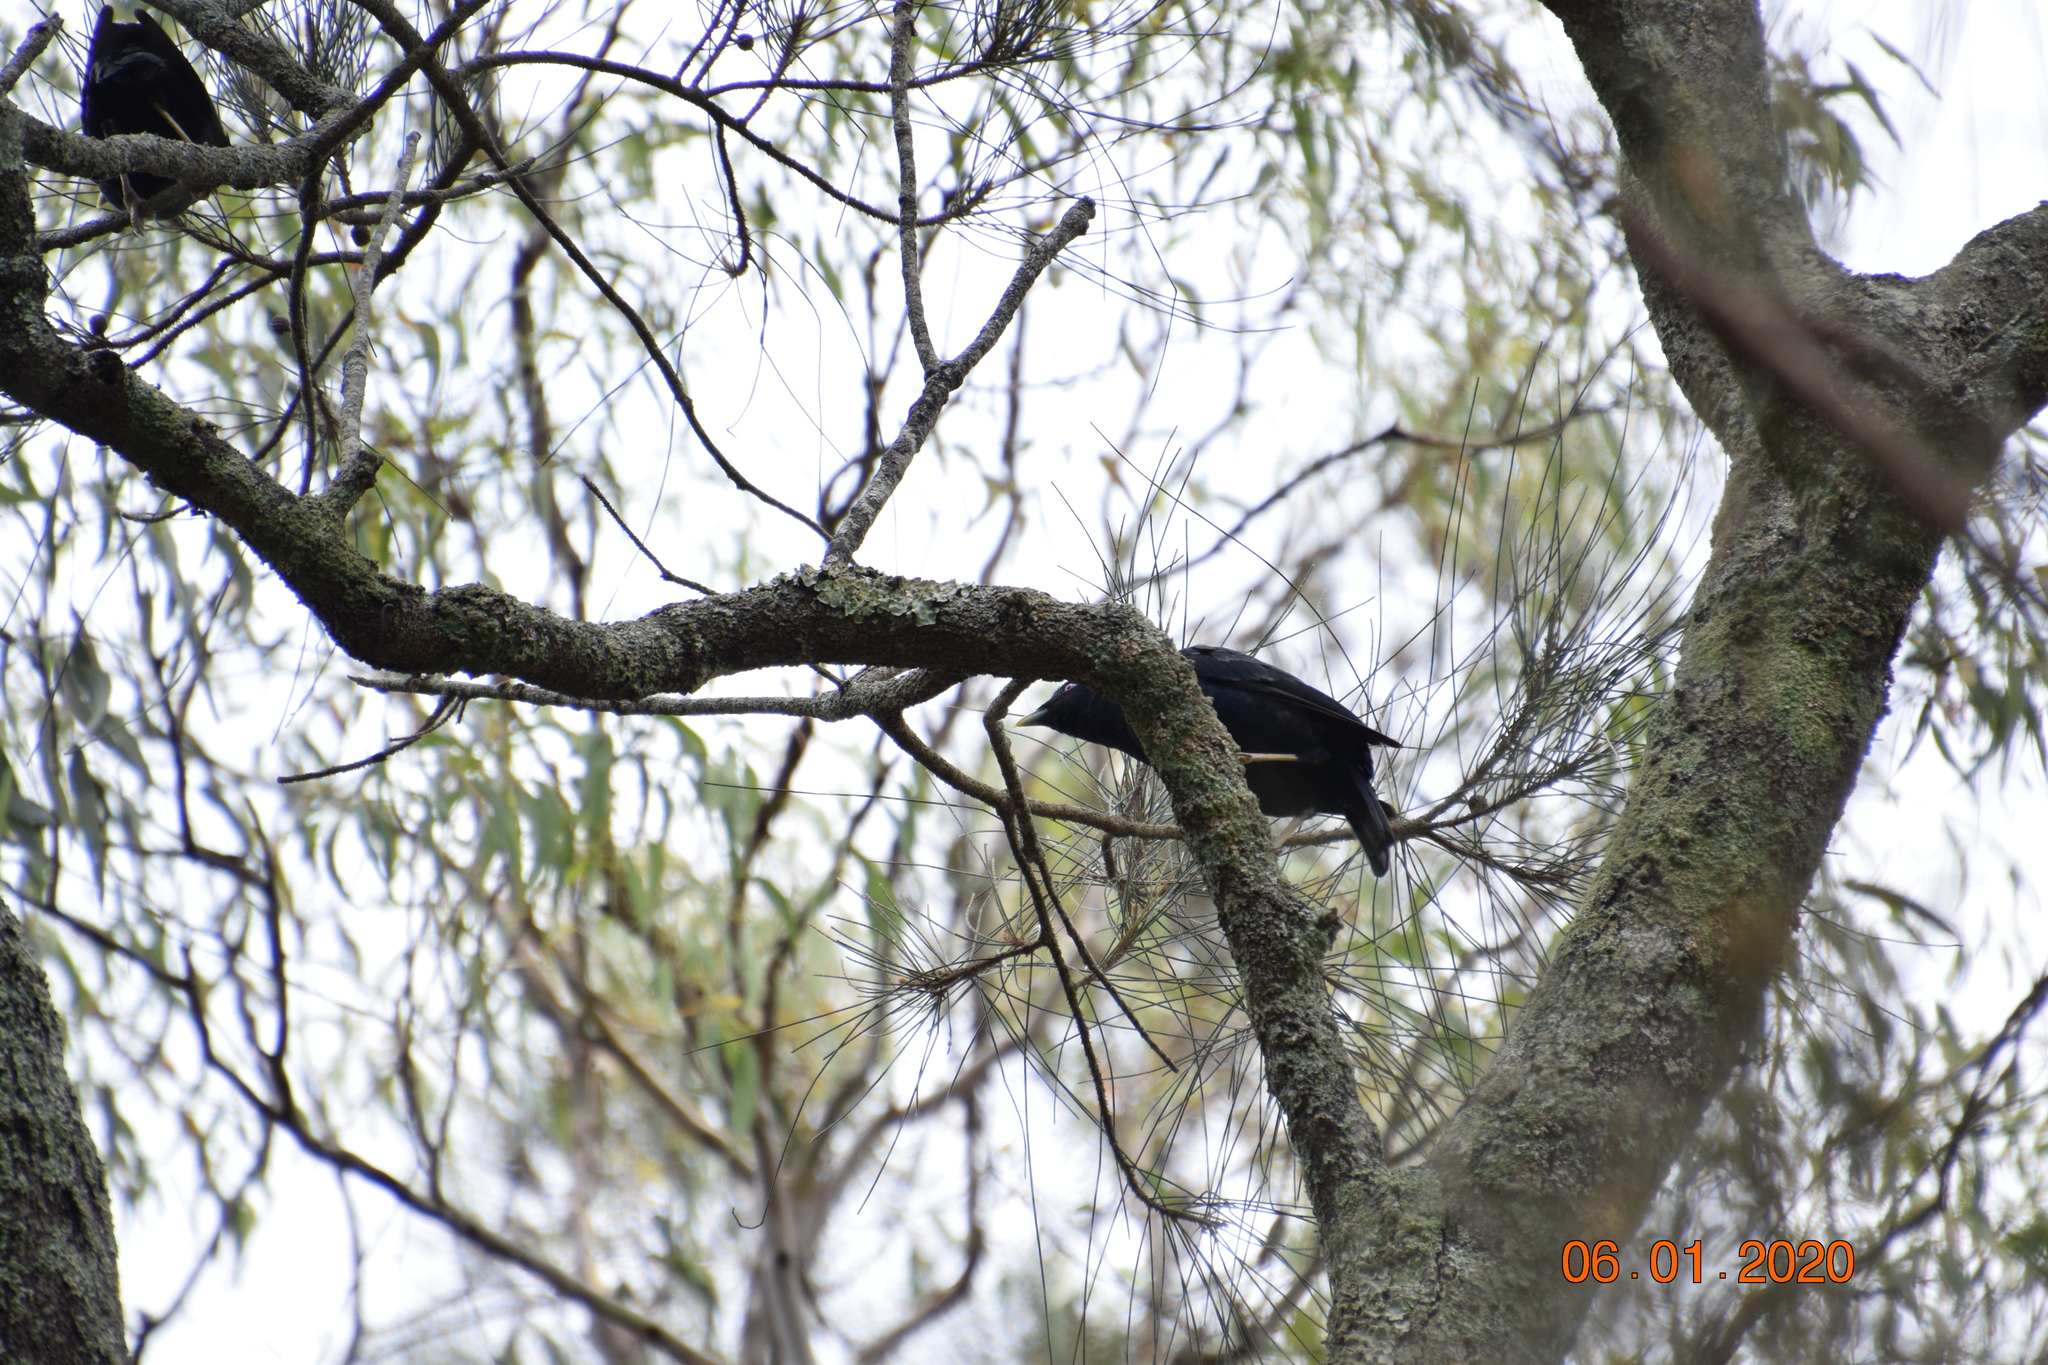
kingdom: Animalia
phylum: Chordata
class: Aves
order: Passeriformes
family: Ptilonorhynchidae
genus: Ptilonorhynchus
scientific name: Ptilonorhynchus violaceus
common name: Satin bowerbird
